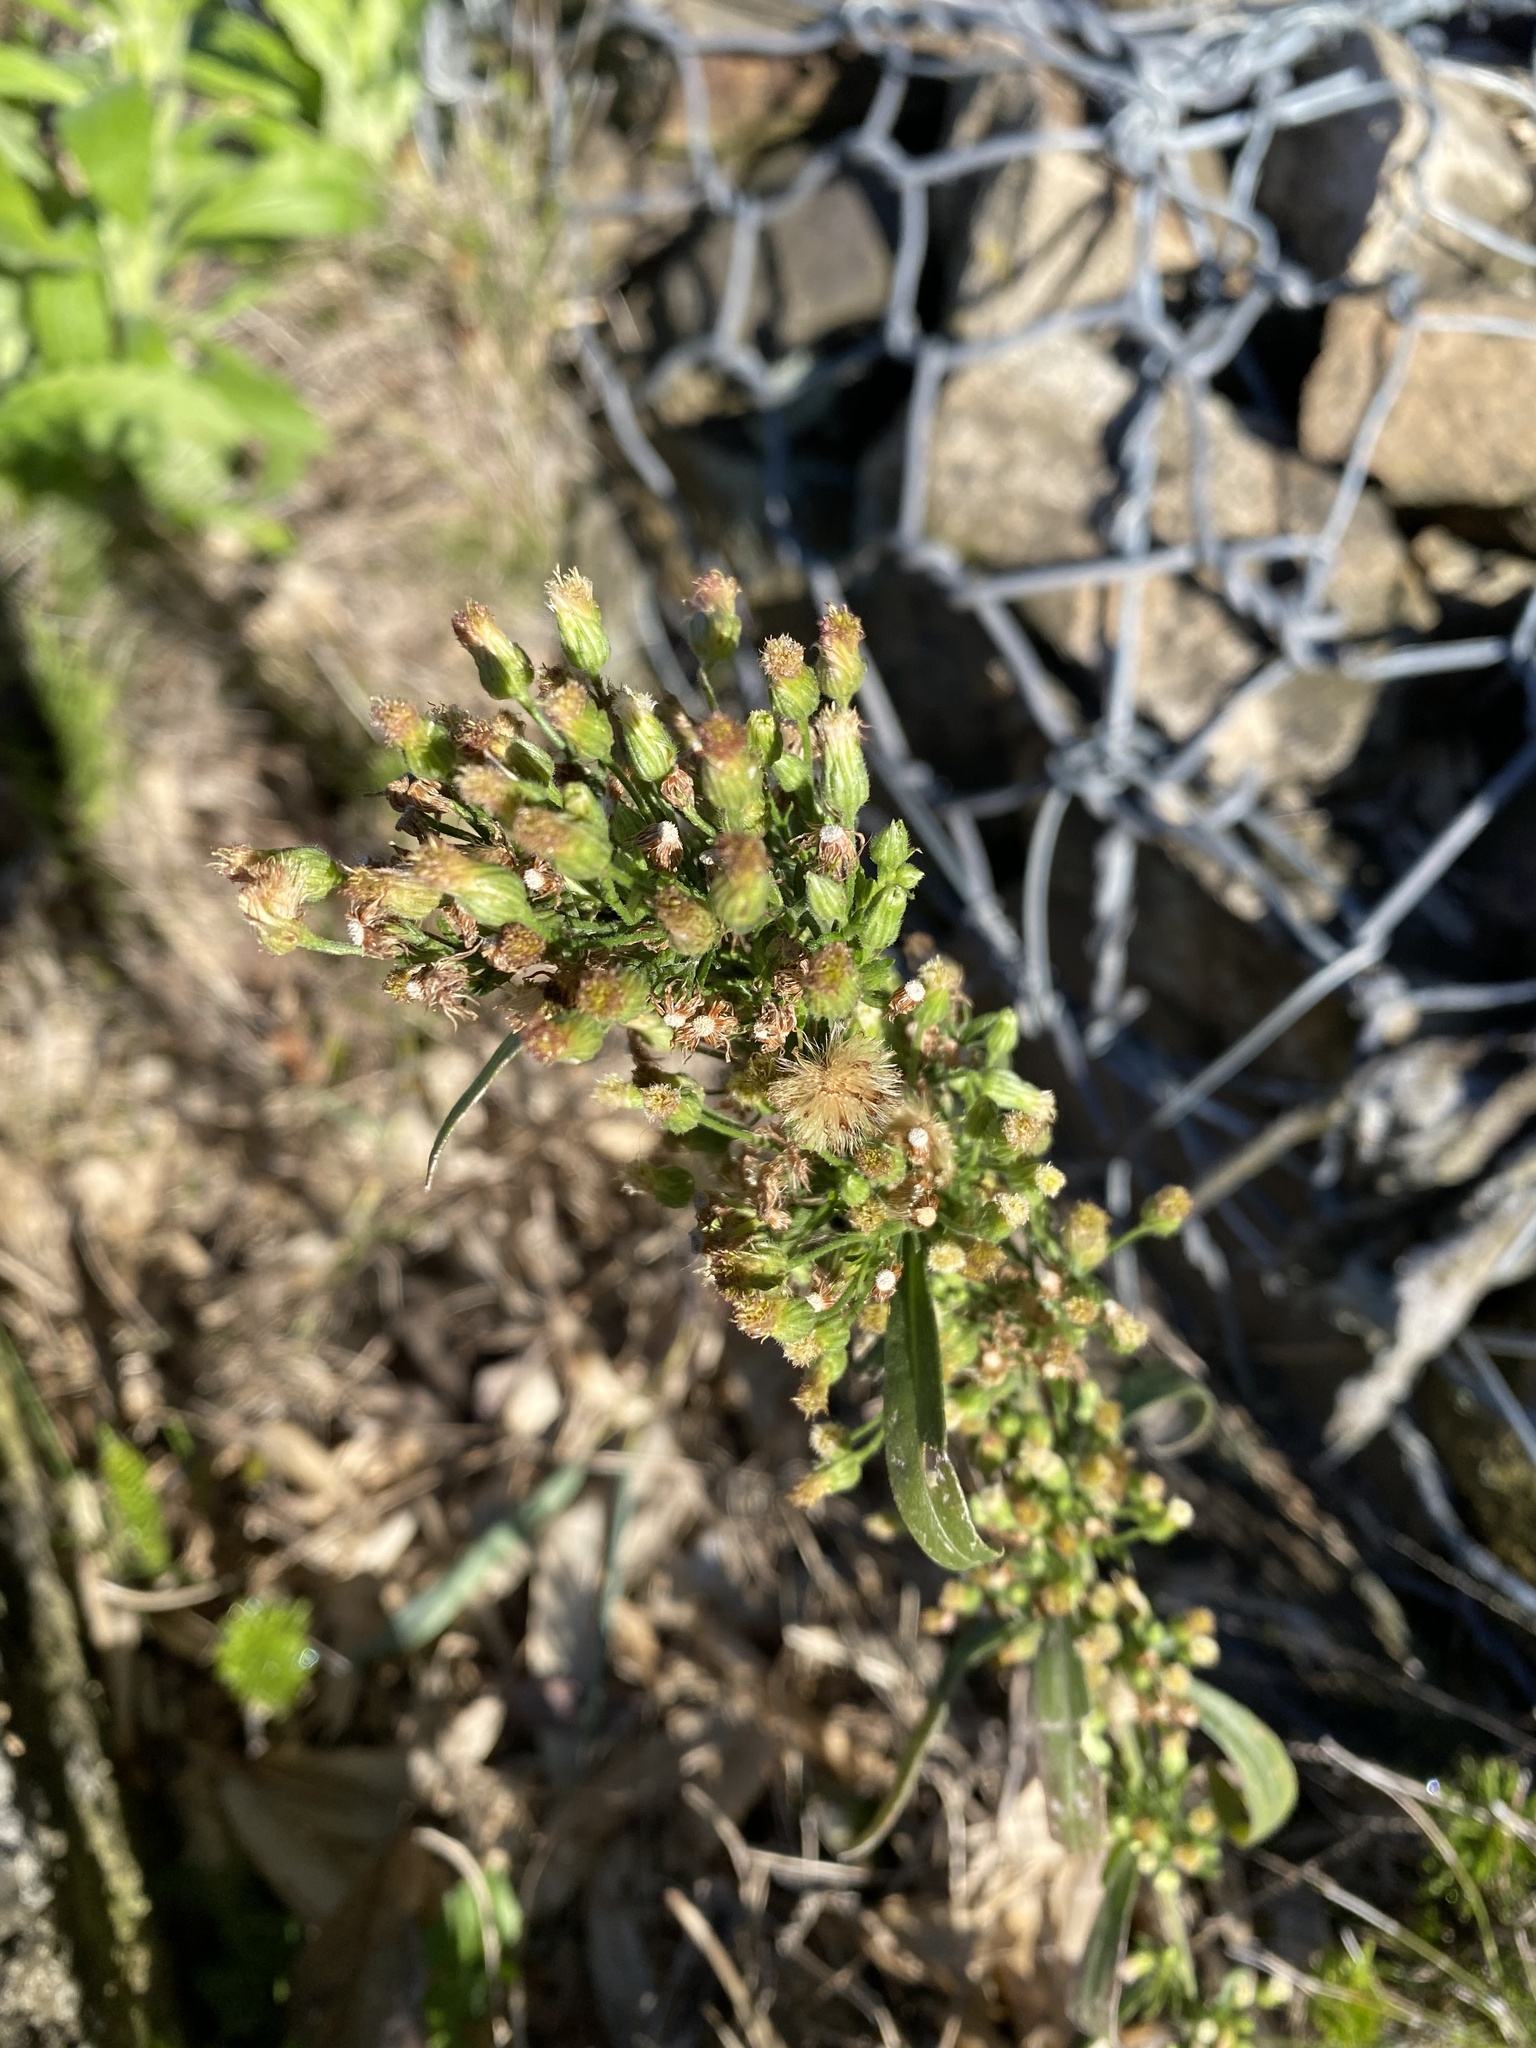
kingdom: Plantae
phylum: Tracheophyta
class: Magnoliopsida
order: Asterales
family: Asteraceae
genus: Erigeron
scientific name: Erigeron sumatrensis
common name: Daisy
